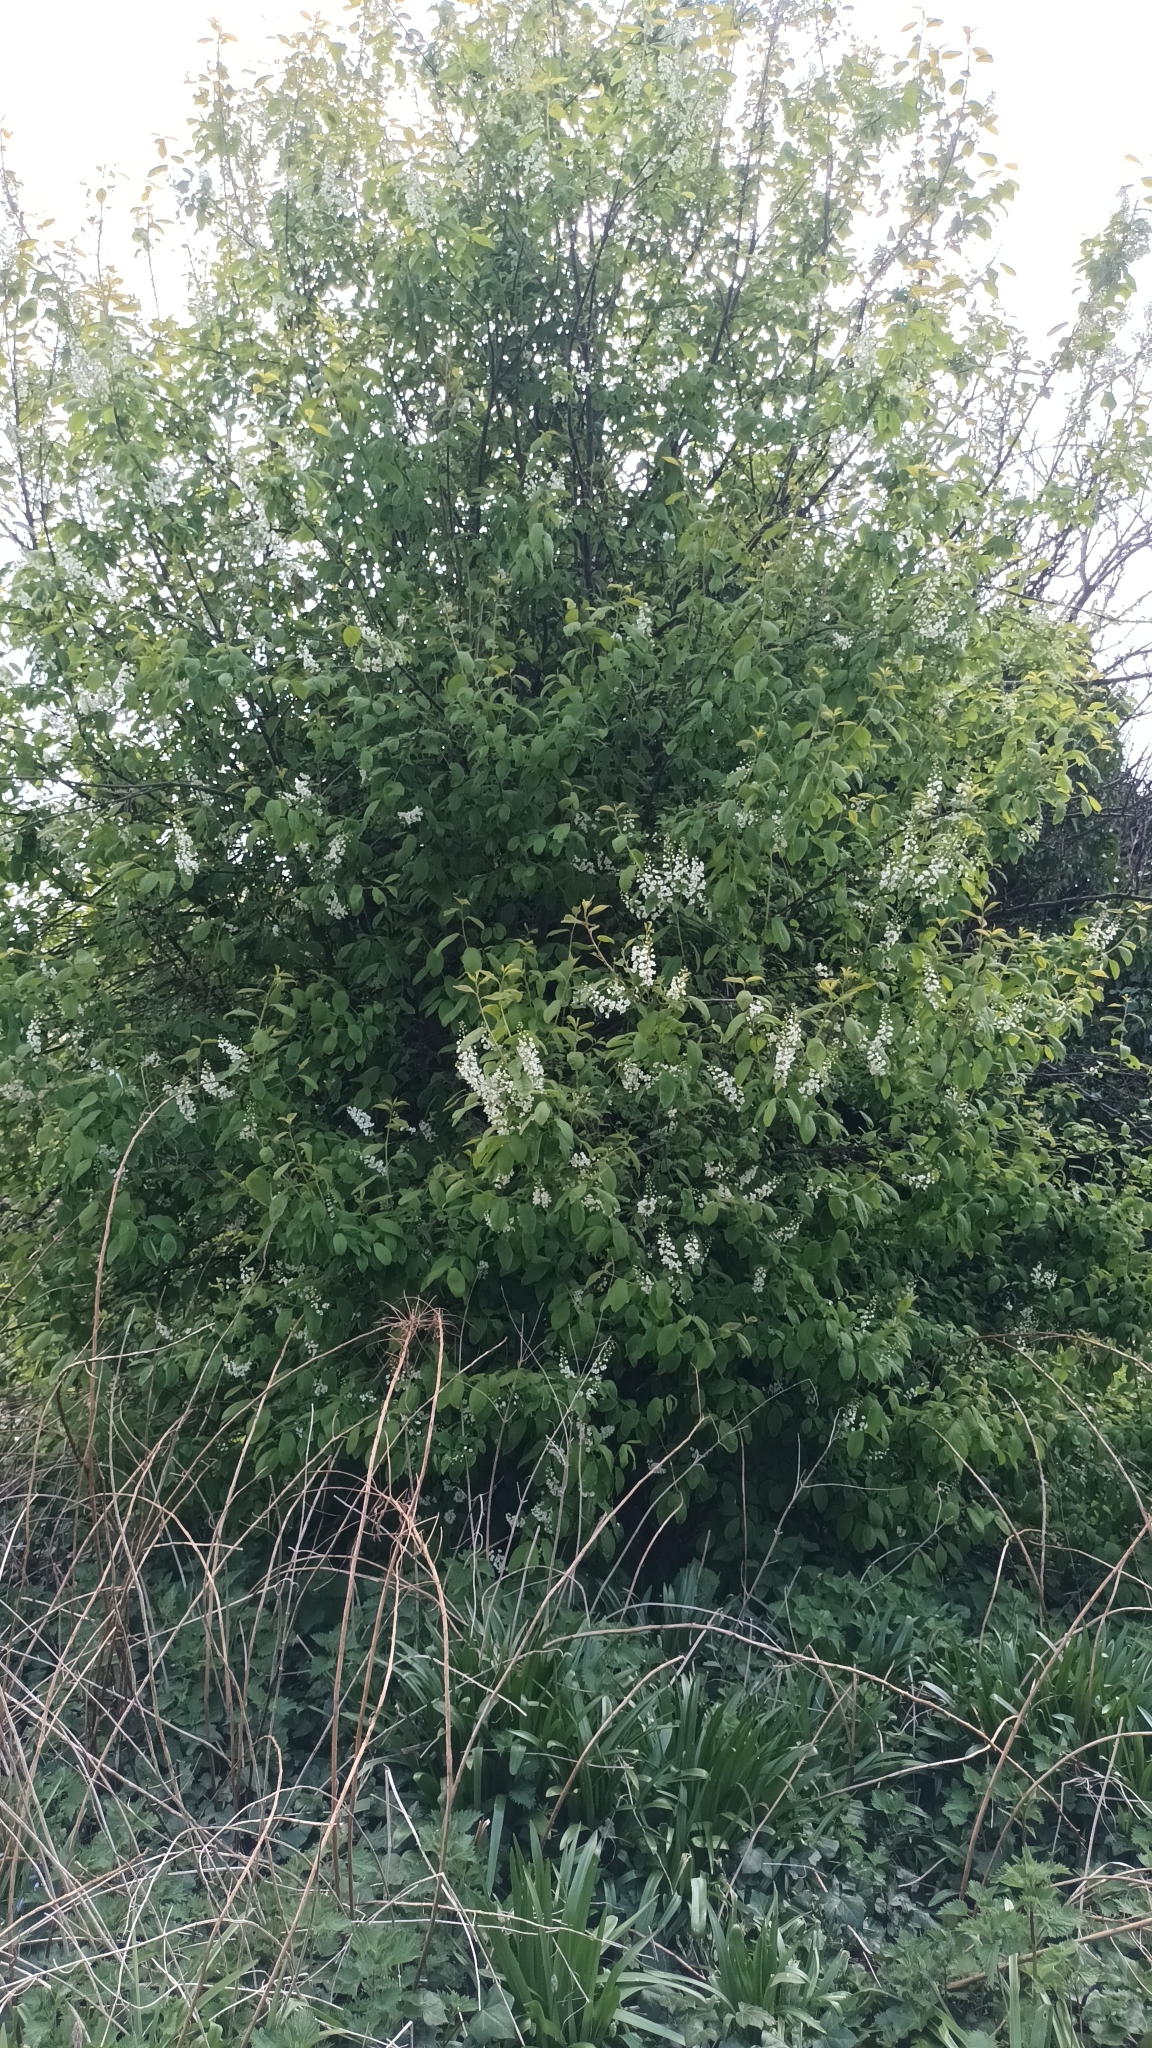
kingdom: Plantae
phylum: Tracheophyta
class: Magnoliopsida
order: Rosales
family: Rosaceae
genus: Prunus
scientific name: Prunus padus
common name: Bird cherry
